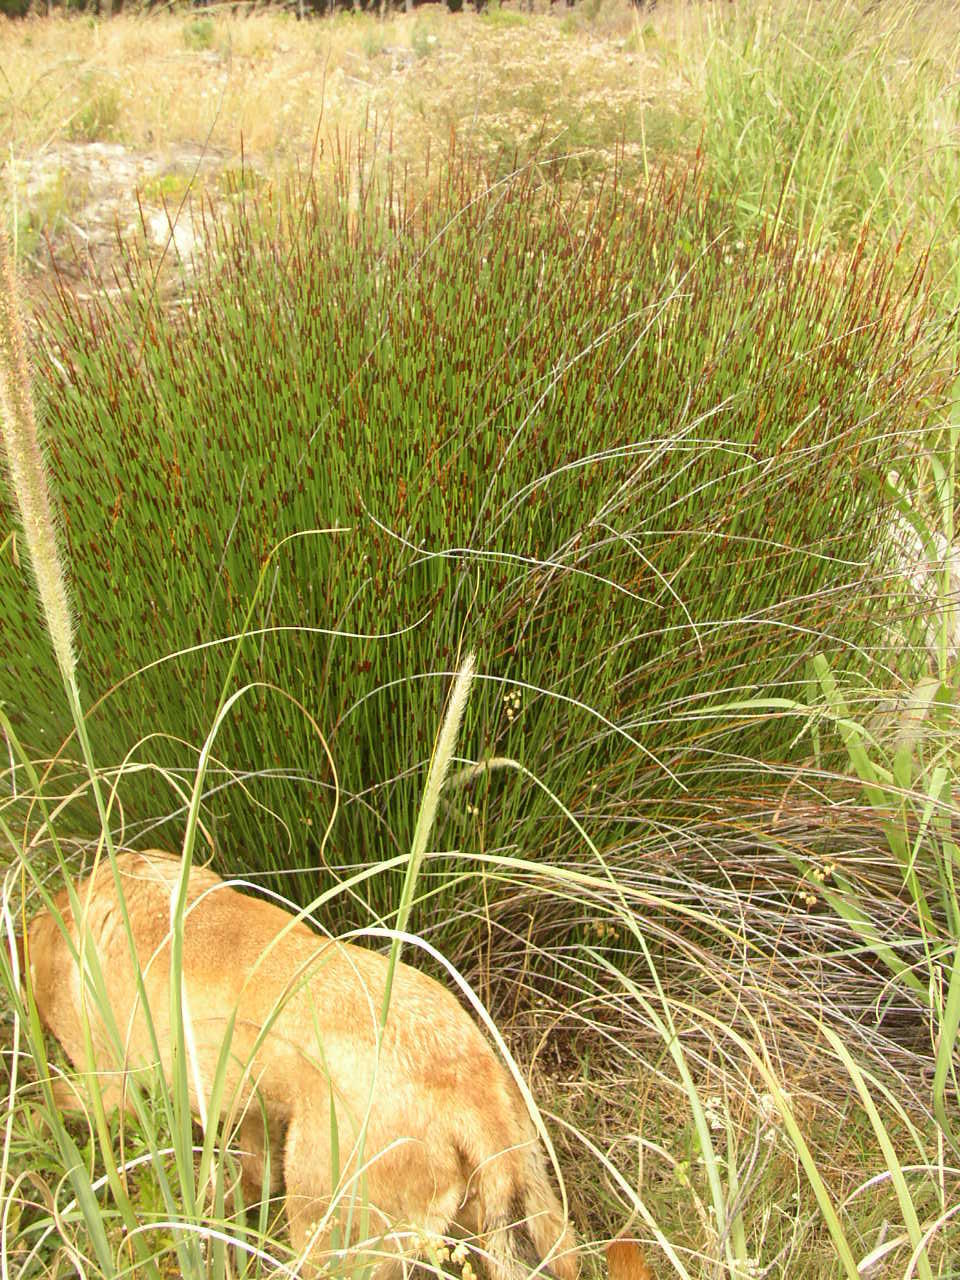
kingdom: Plantae
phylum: Tracheophyta
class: Liliopsida
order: Poales
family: Restionaceae
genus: Elegia
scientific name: Elegia tectorum
